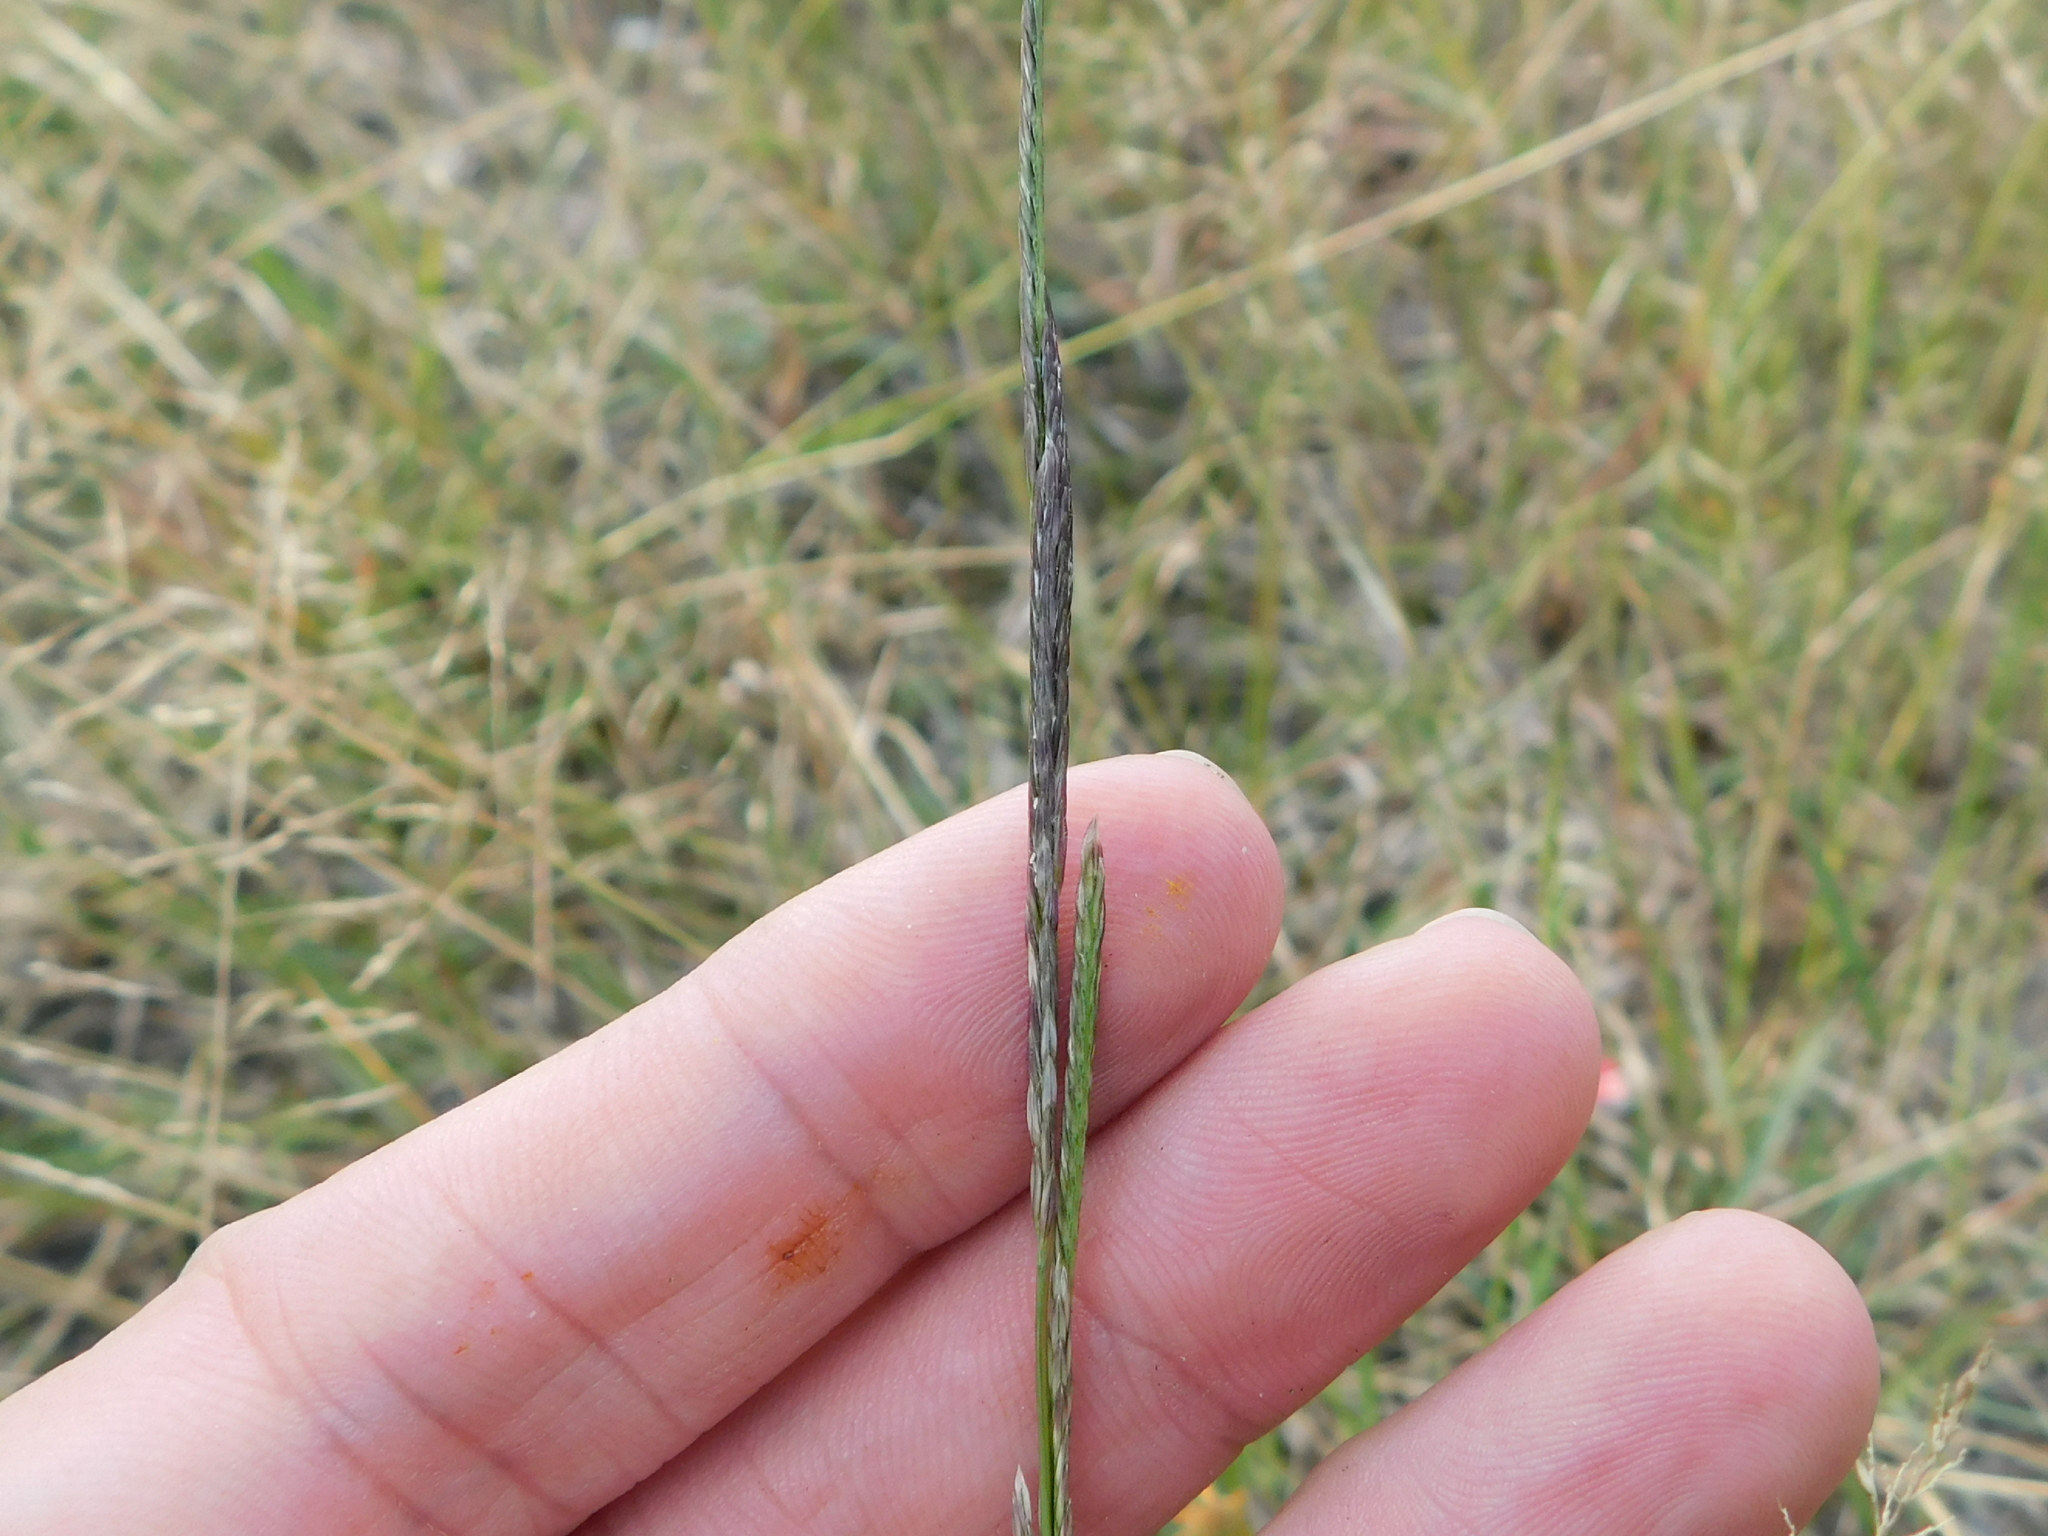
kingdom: Plantae
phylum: Tracheophyta
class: Liliopsida
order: Poales
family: Poaceae
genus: Willkommia
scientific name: Willkommia texana
